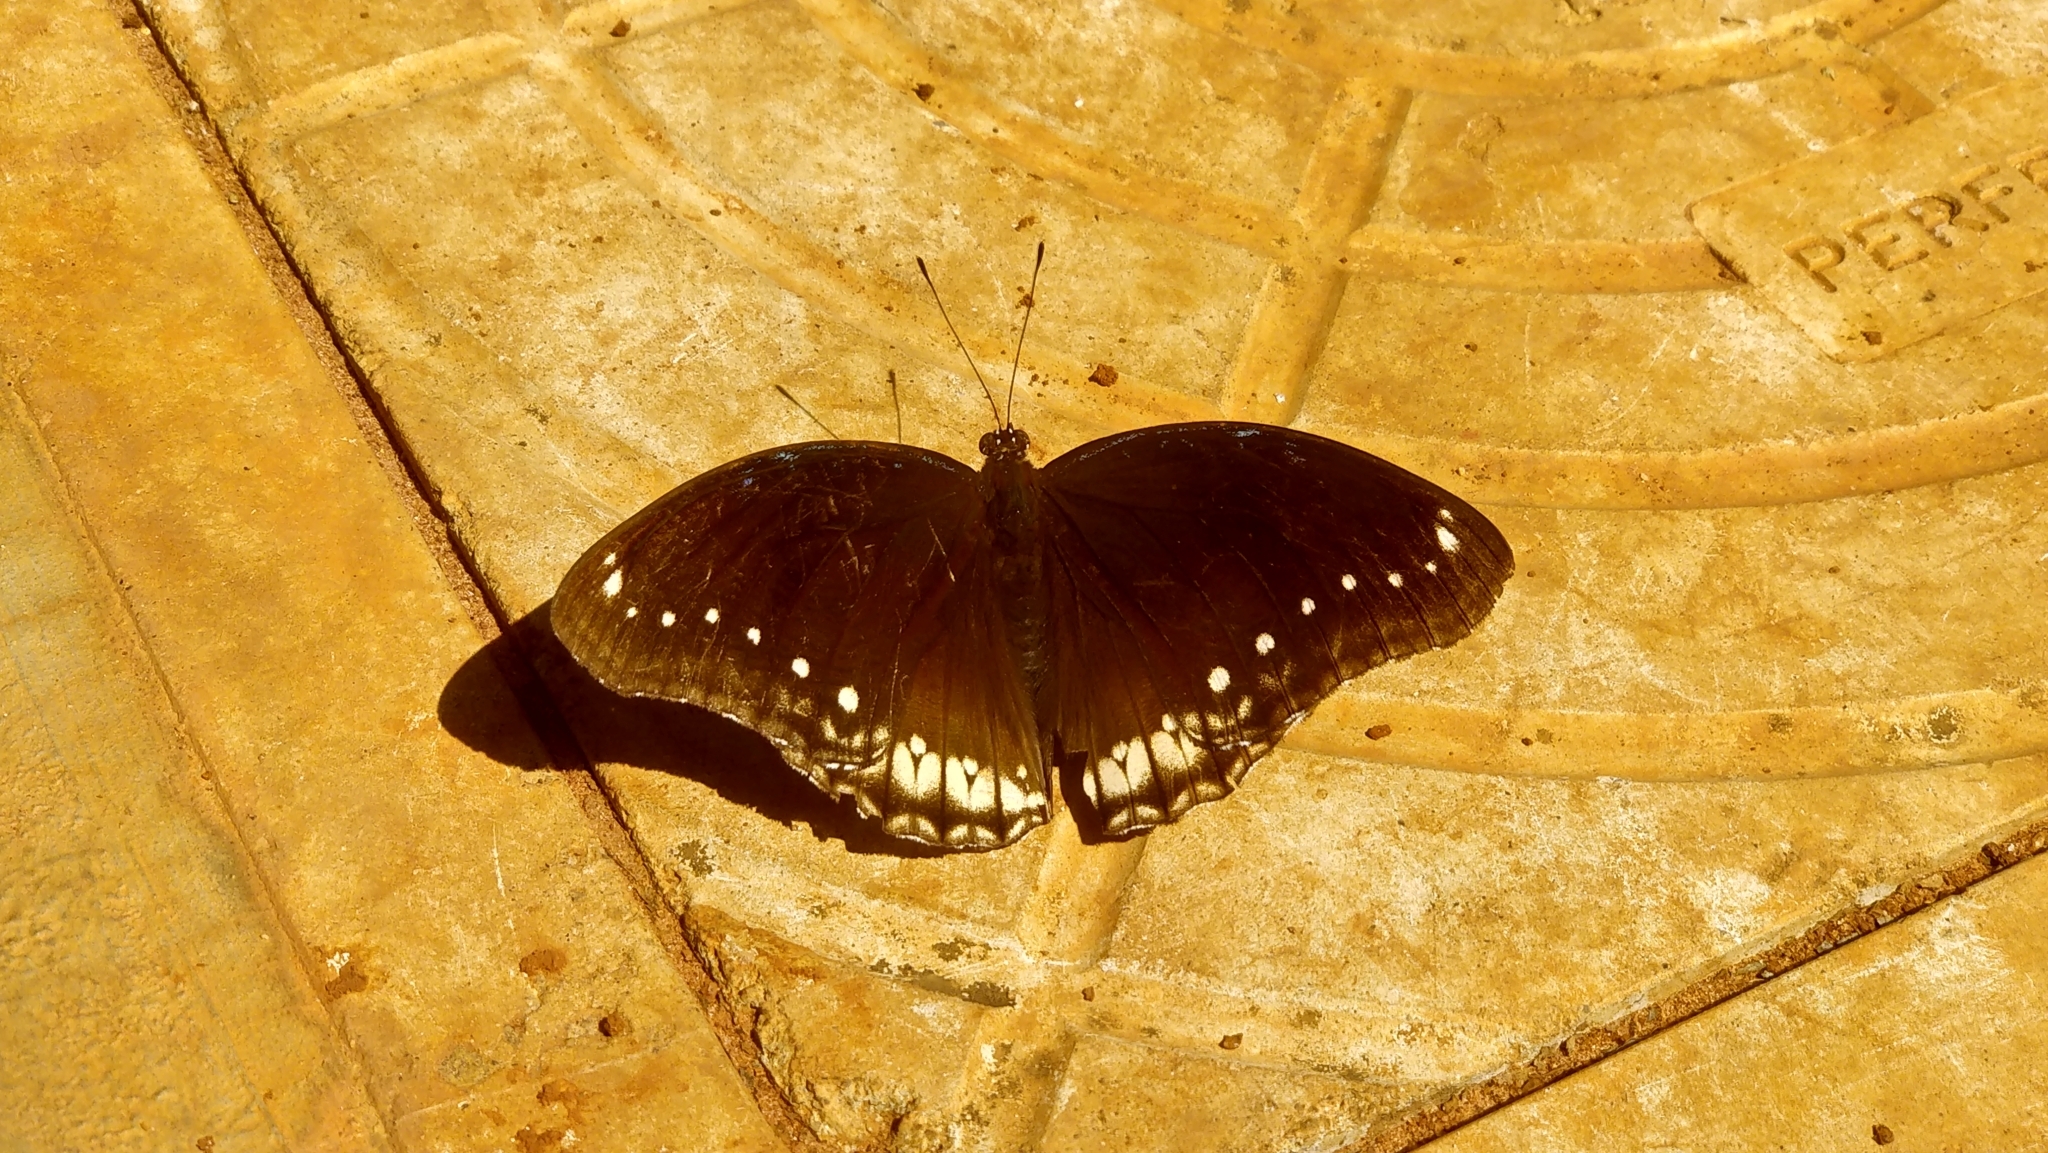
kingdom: Animalia
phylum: Arthropoda
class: Insecta
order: Lepidoptera
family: Nymphalidae
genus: Hypolimnas
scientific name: Hypolimnas bolina
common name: Great eggfly
